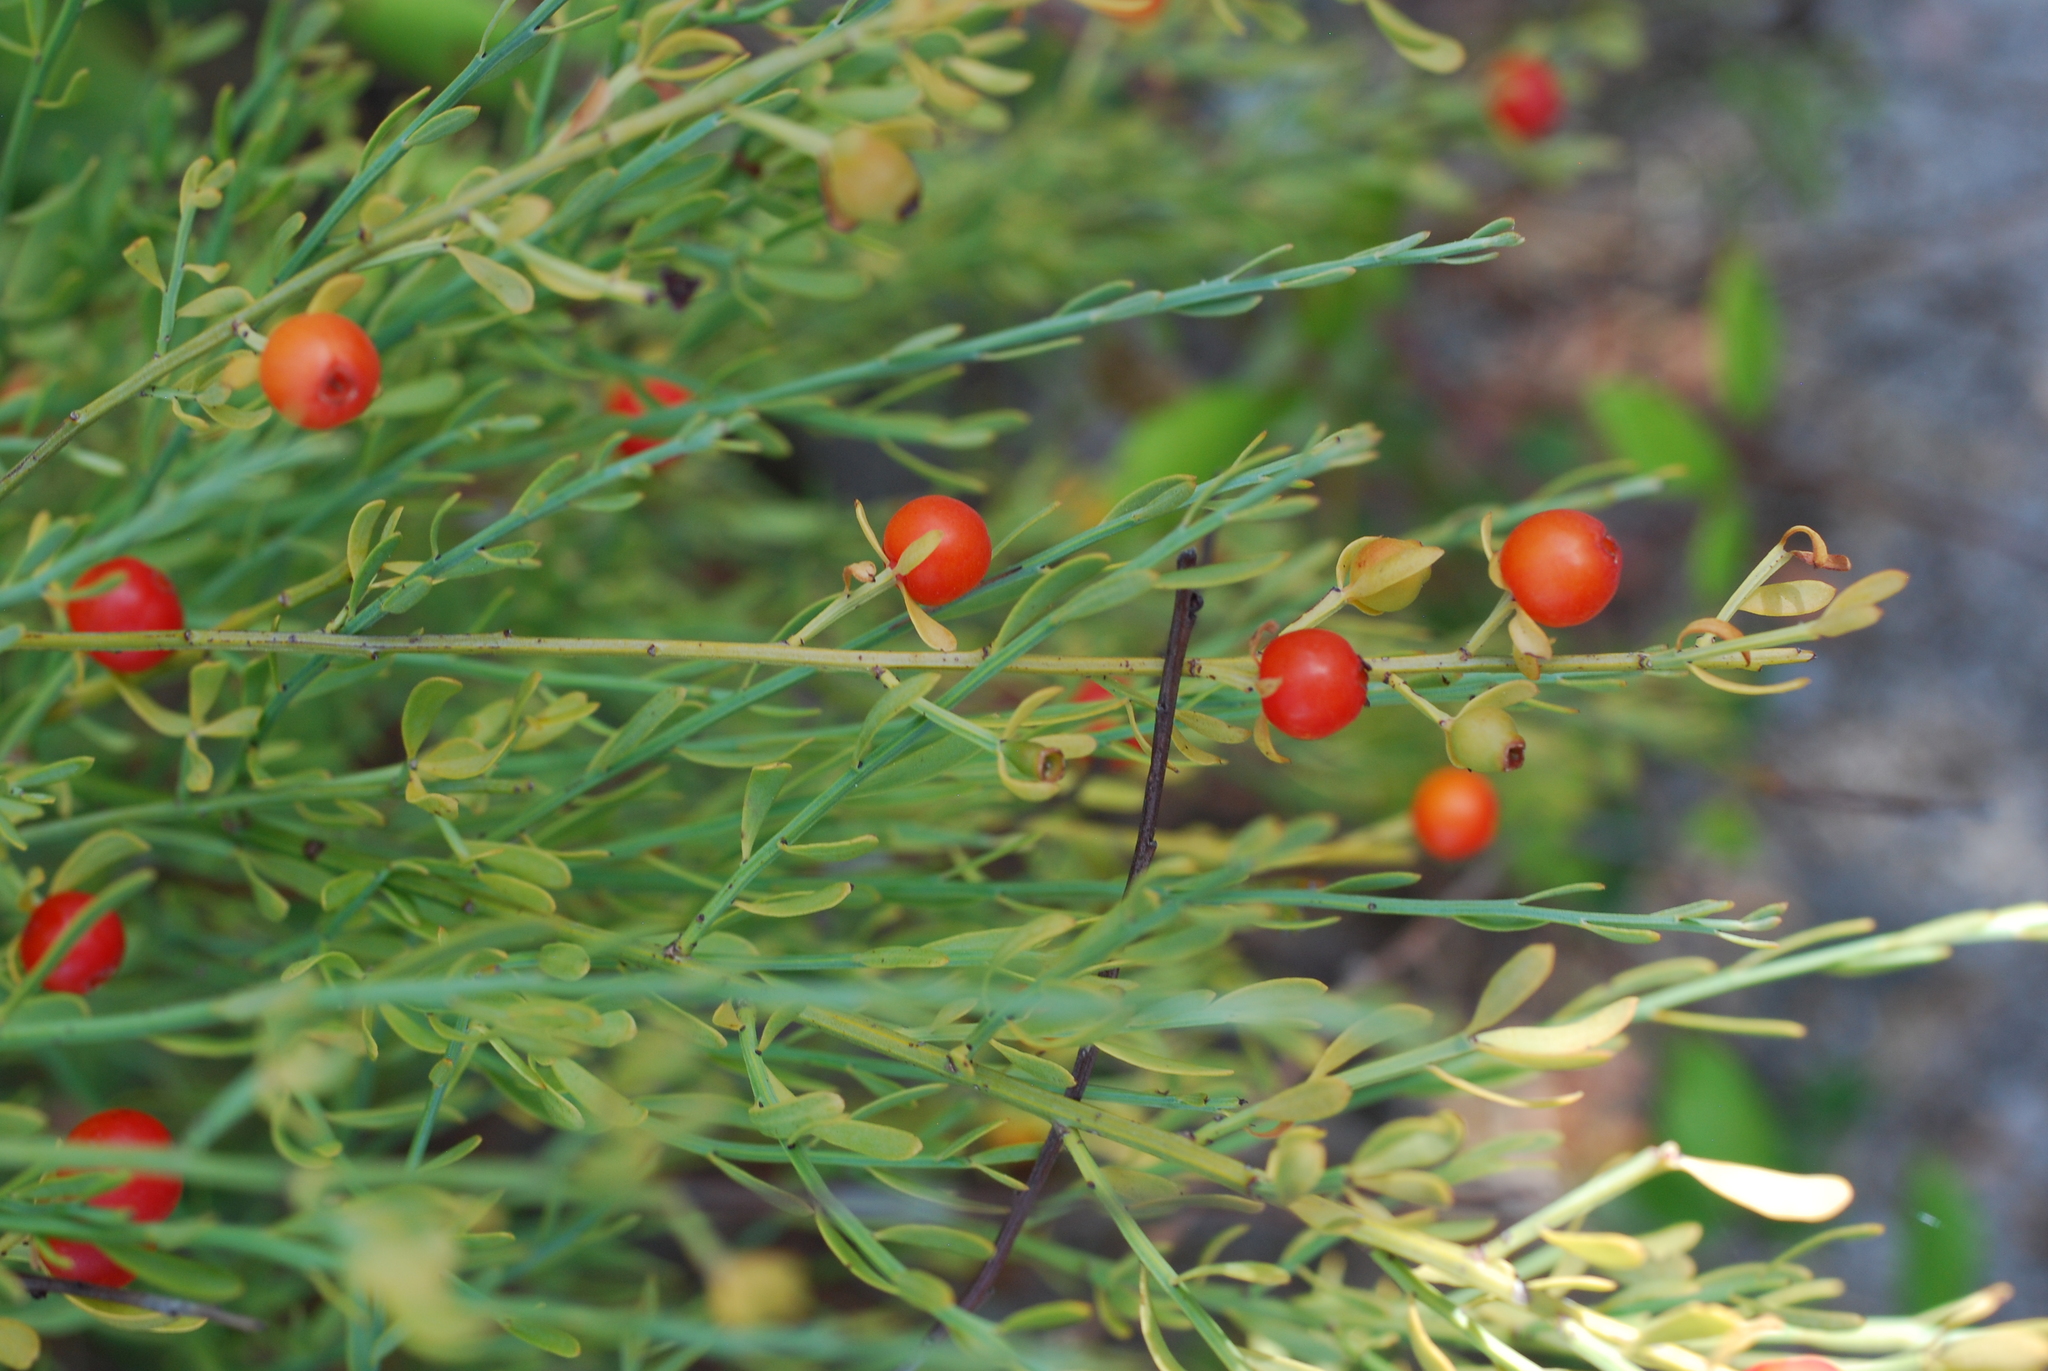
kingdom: Plantae
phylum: Tracheophyta
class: Magnoliopsida
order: Santalales
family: Santalaceae
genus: Osyris
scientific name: Osyris alba
